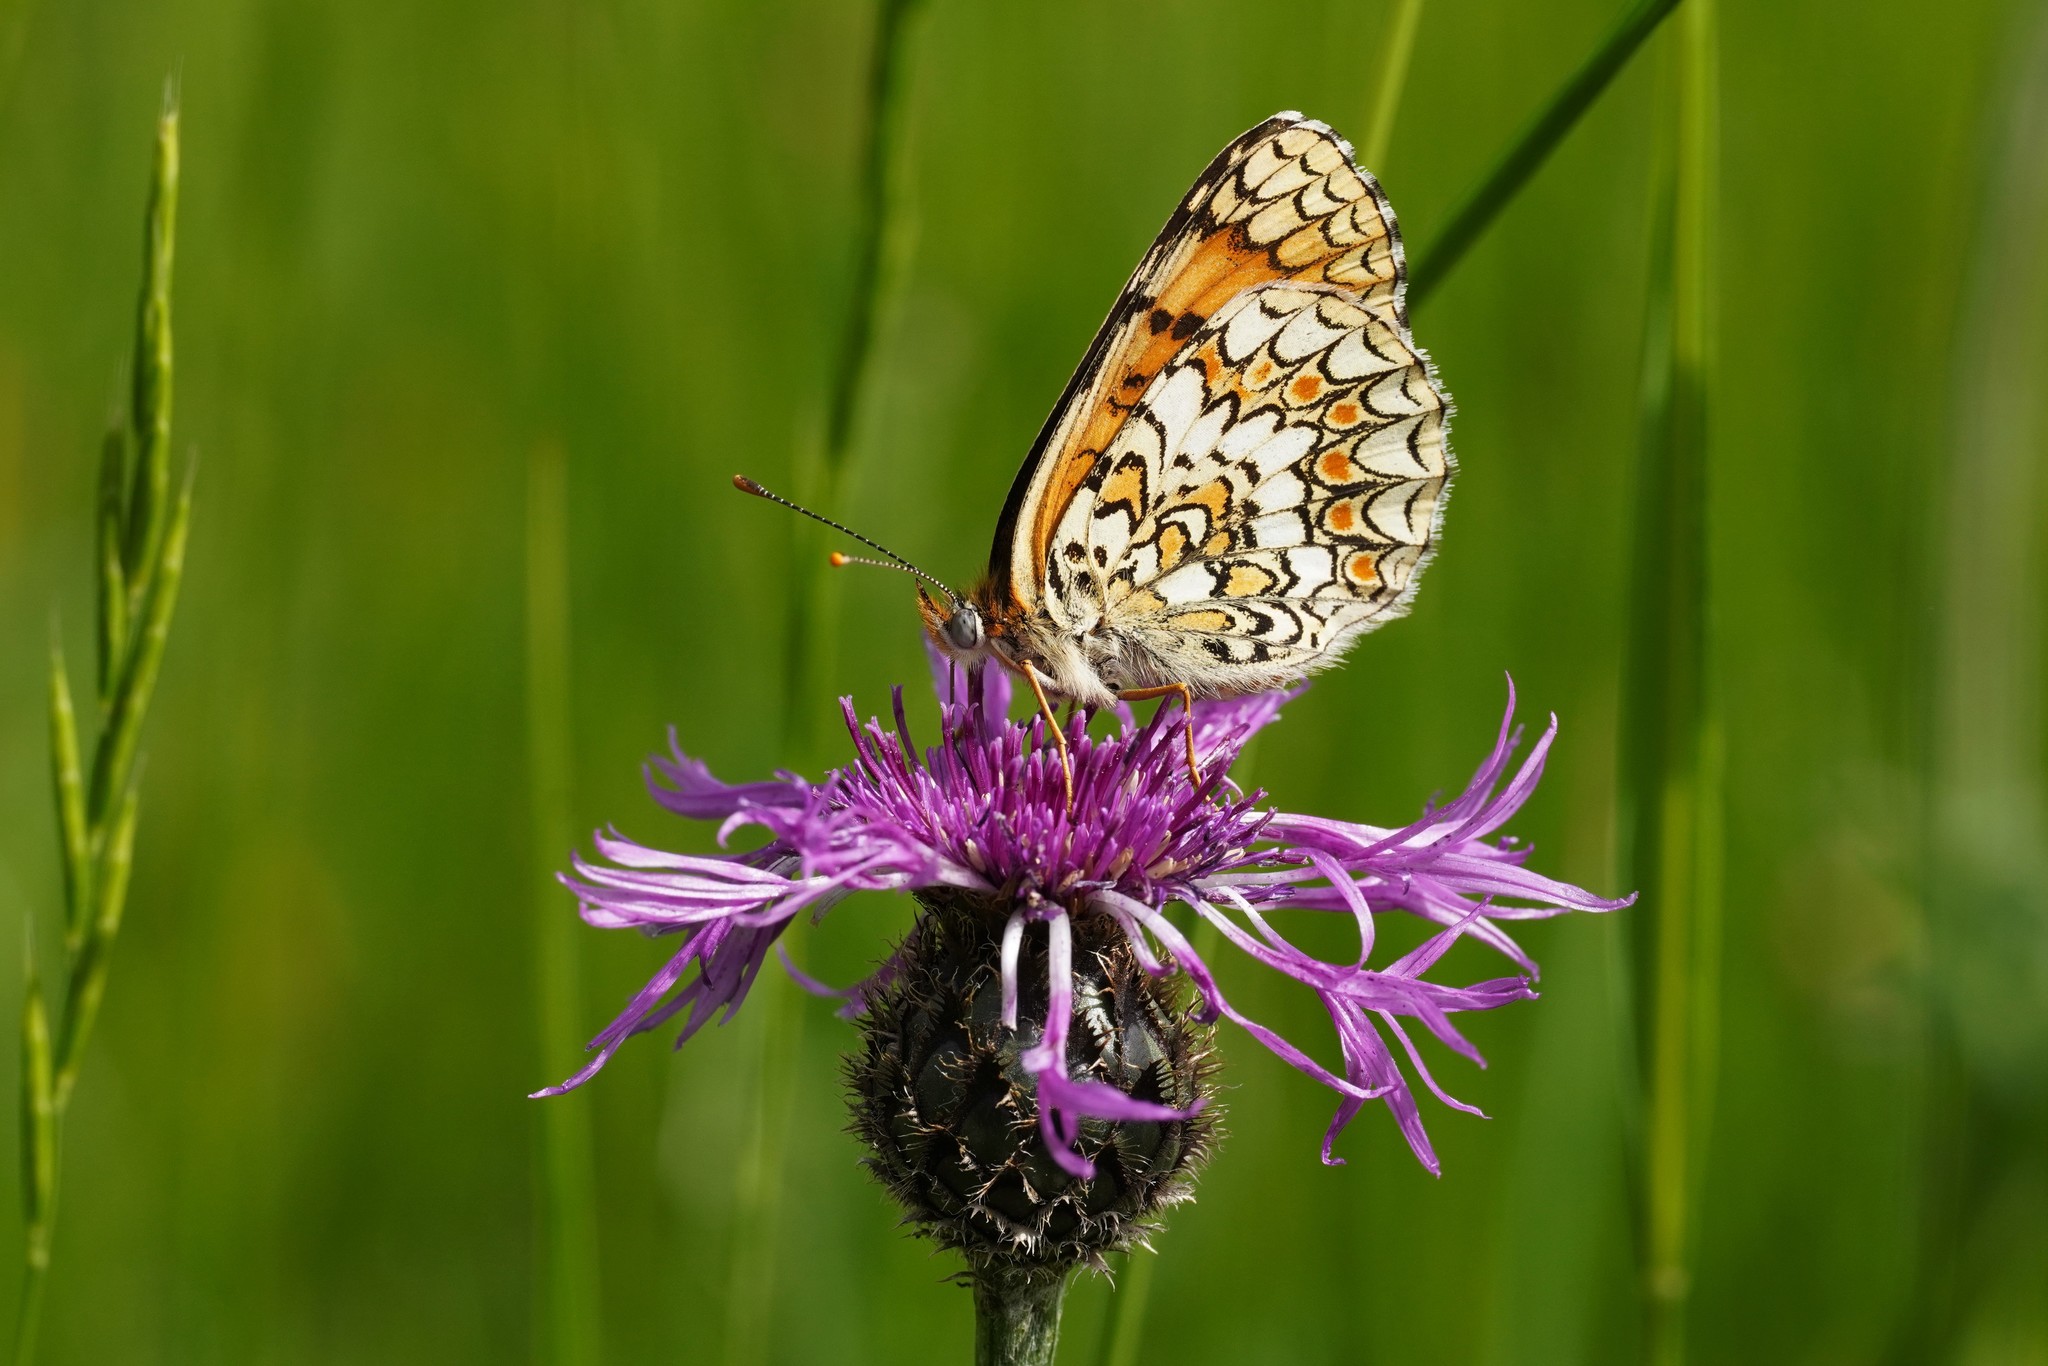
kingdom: Animalia
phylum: Arthropoda
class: Insecta
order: Lepidoptera
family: Nymphalidae
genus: Melitaea
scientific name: Melitaea phoebe
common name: Knapweed fritillary
